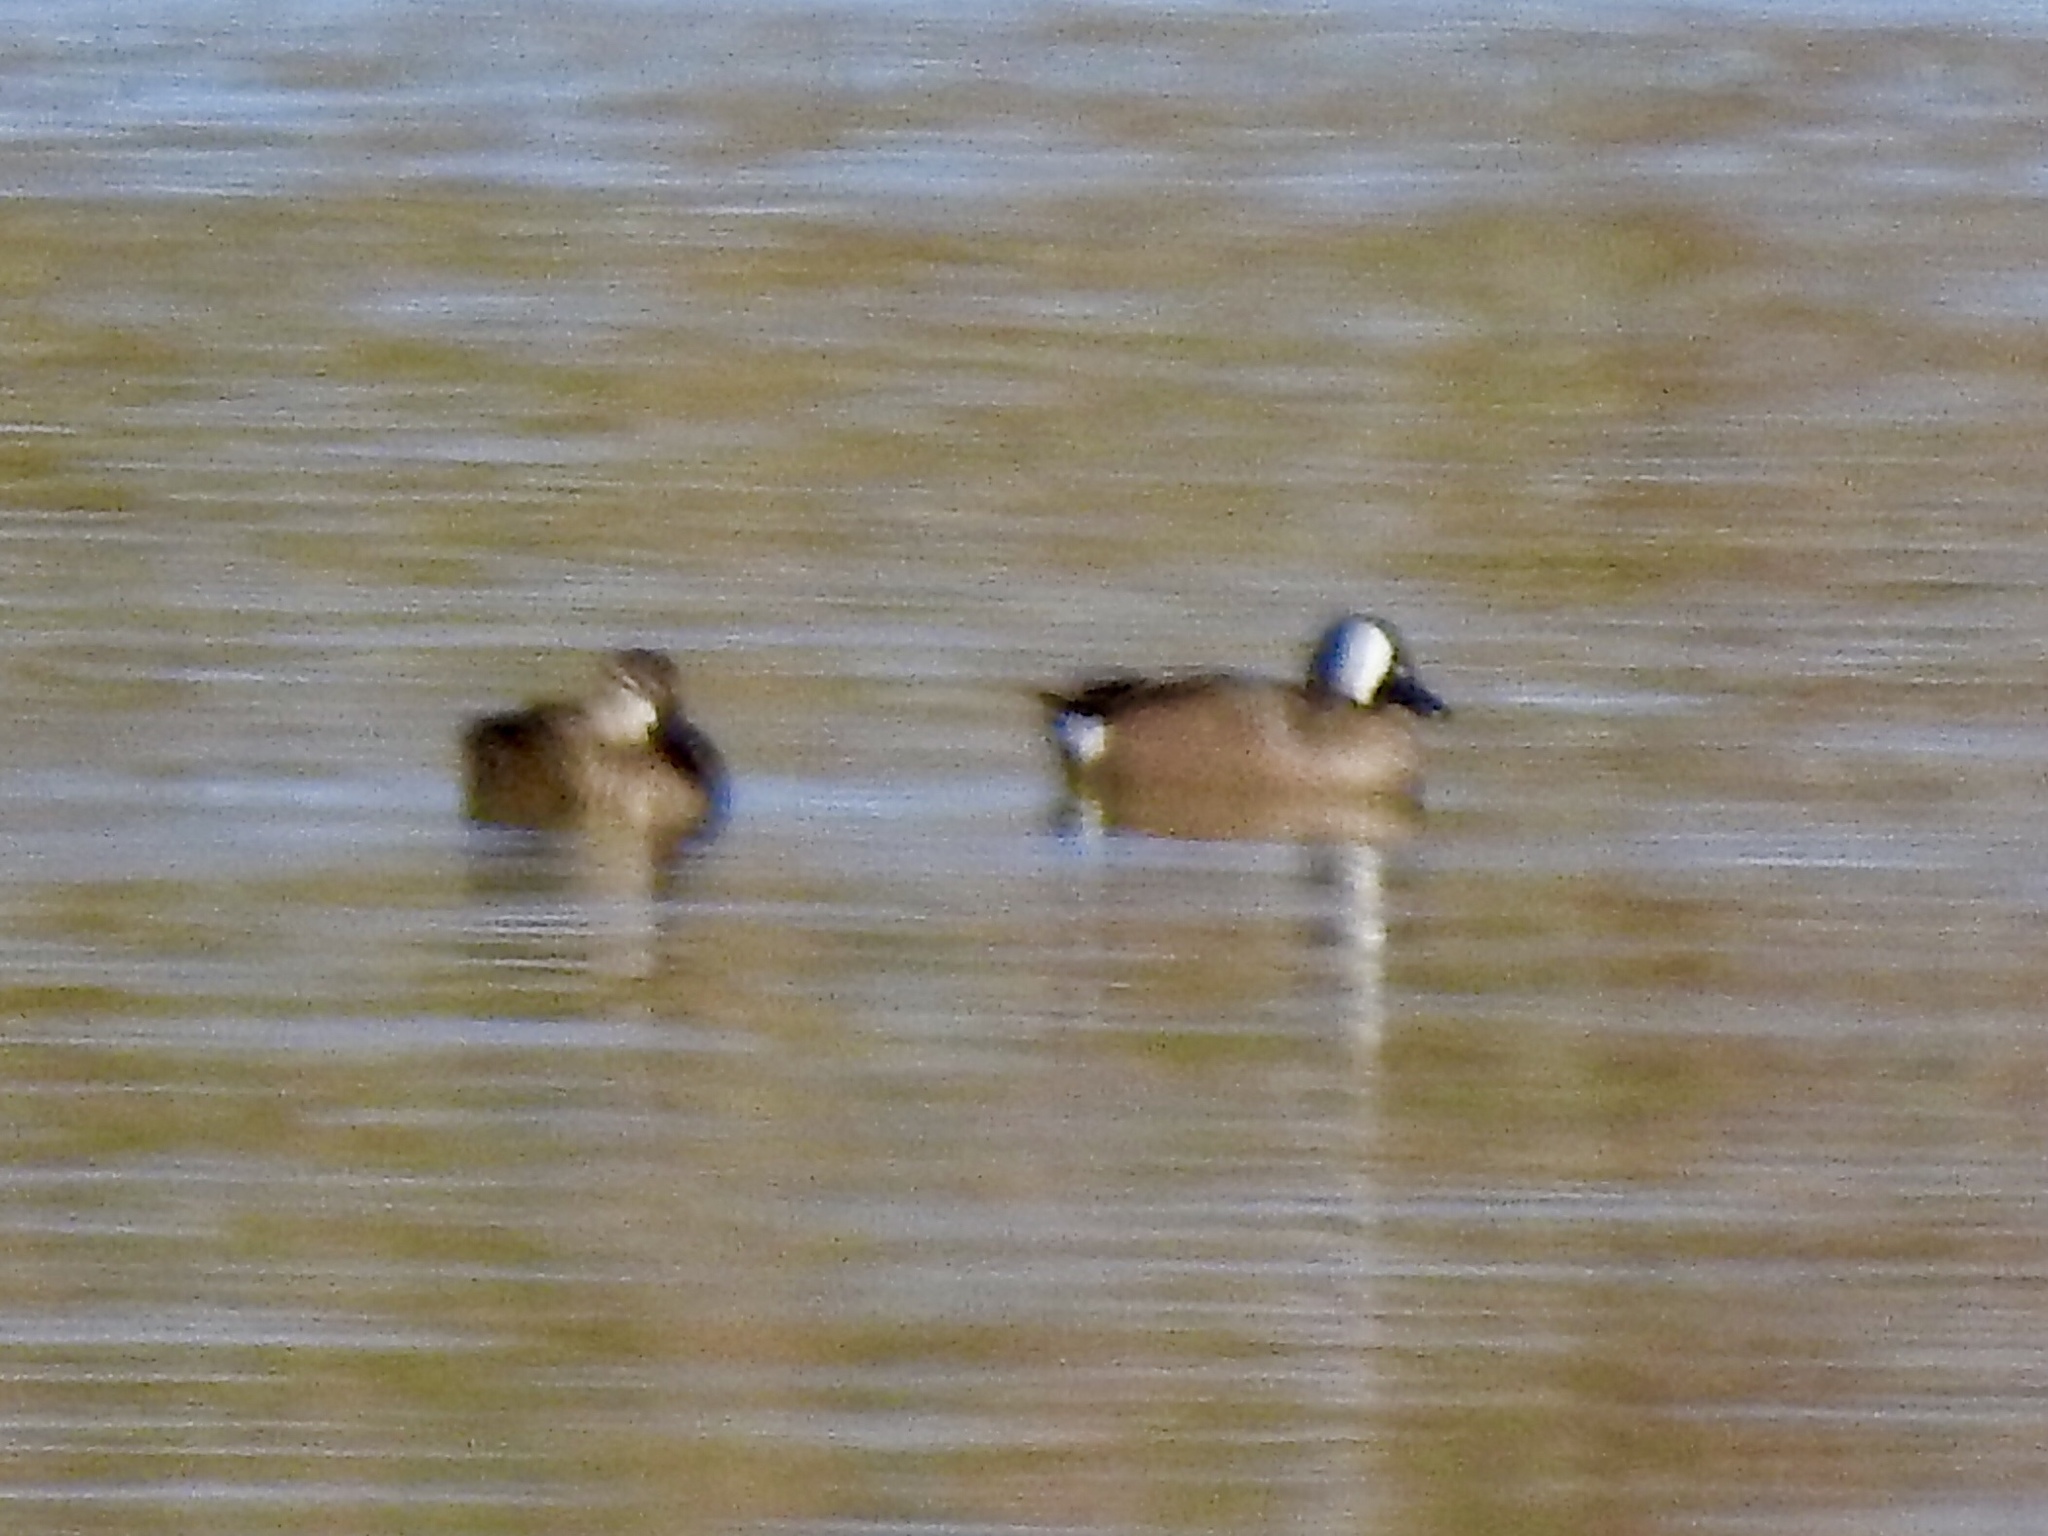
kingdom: Animalia
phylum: Chordata
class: Aves
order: Anseriformes
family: Anatidae
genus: Spatula
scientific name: Spatula discors
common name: Blue-winged teal
